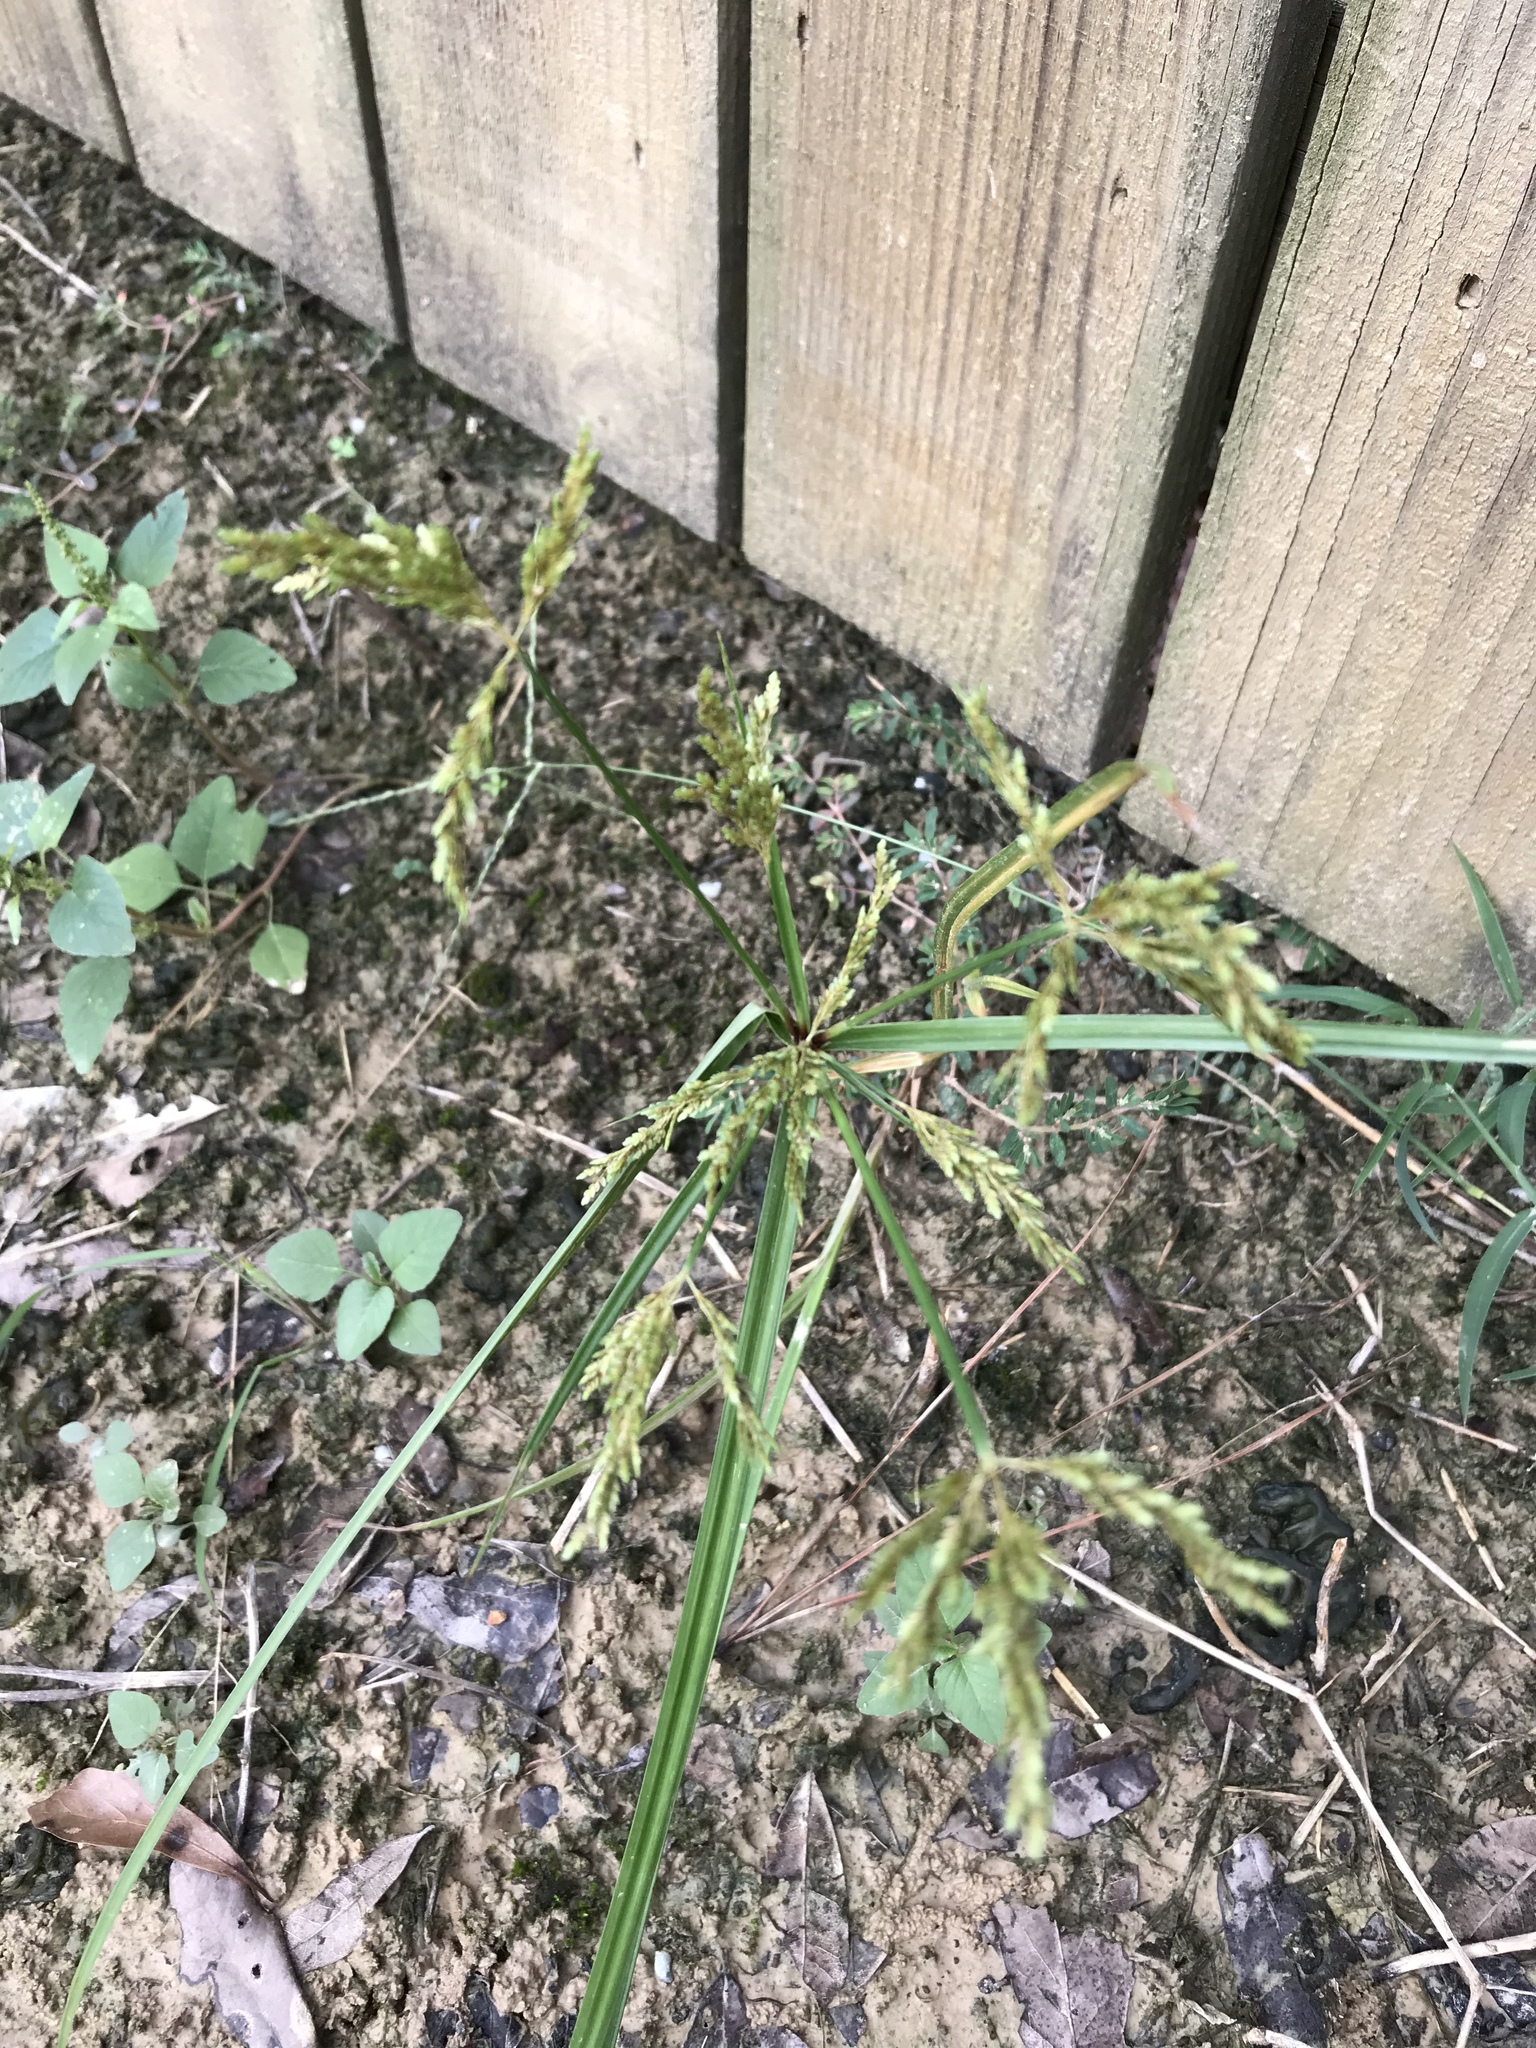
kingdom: Plantae
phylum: Tracheophyta
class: Liliopsida
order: Poales
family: Cyperaceae
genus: Cyperus
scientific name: Cyperus iria
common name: Ricefield flatsedge
